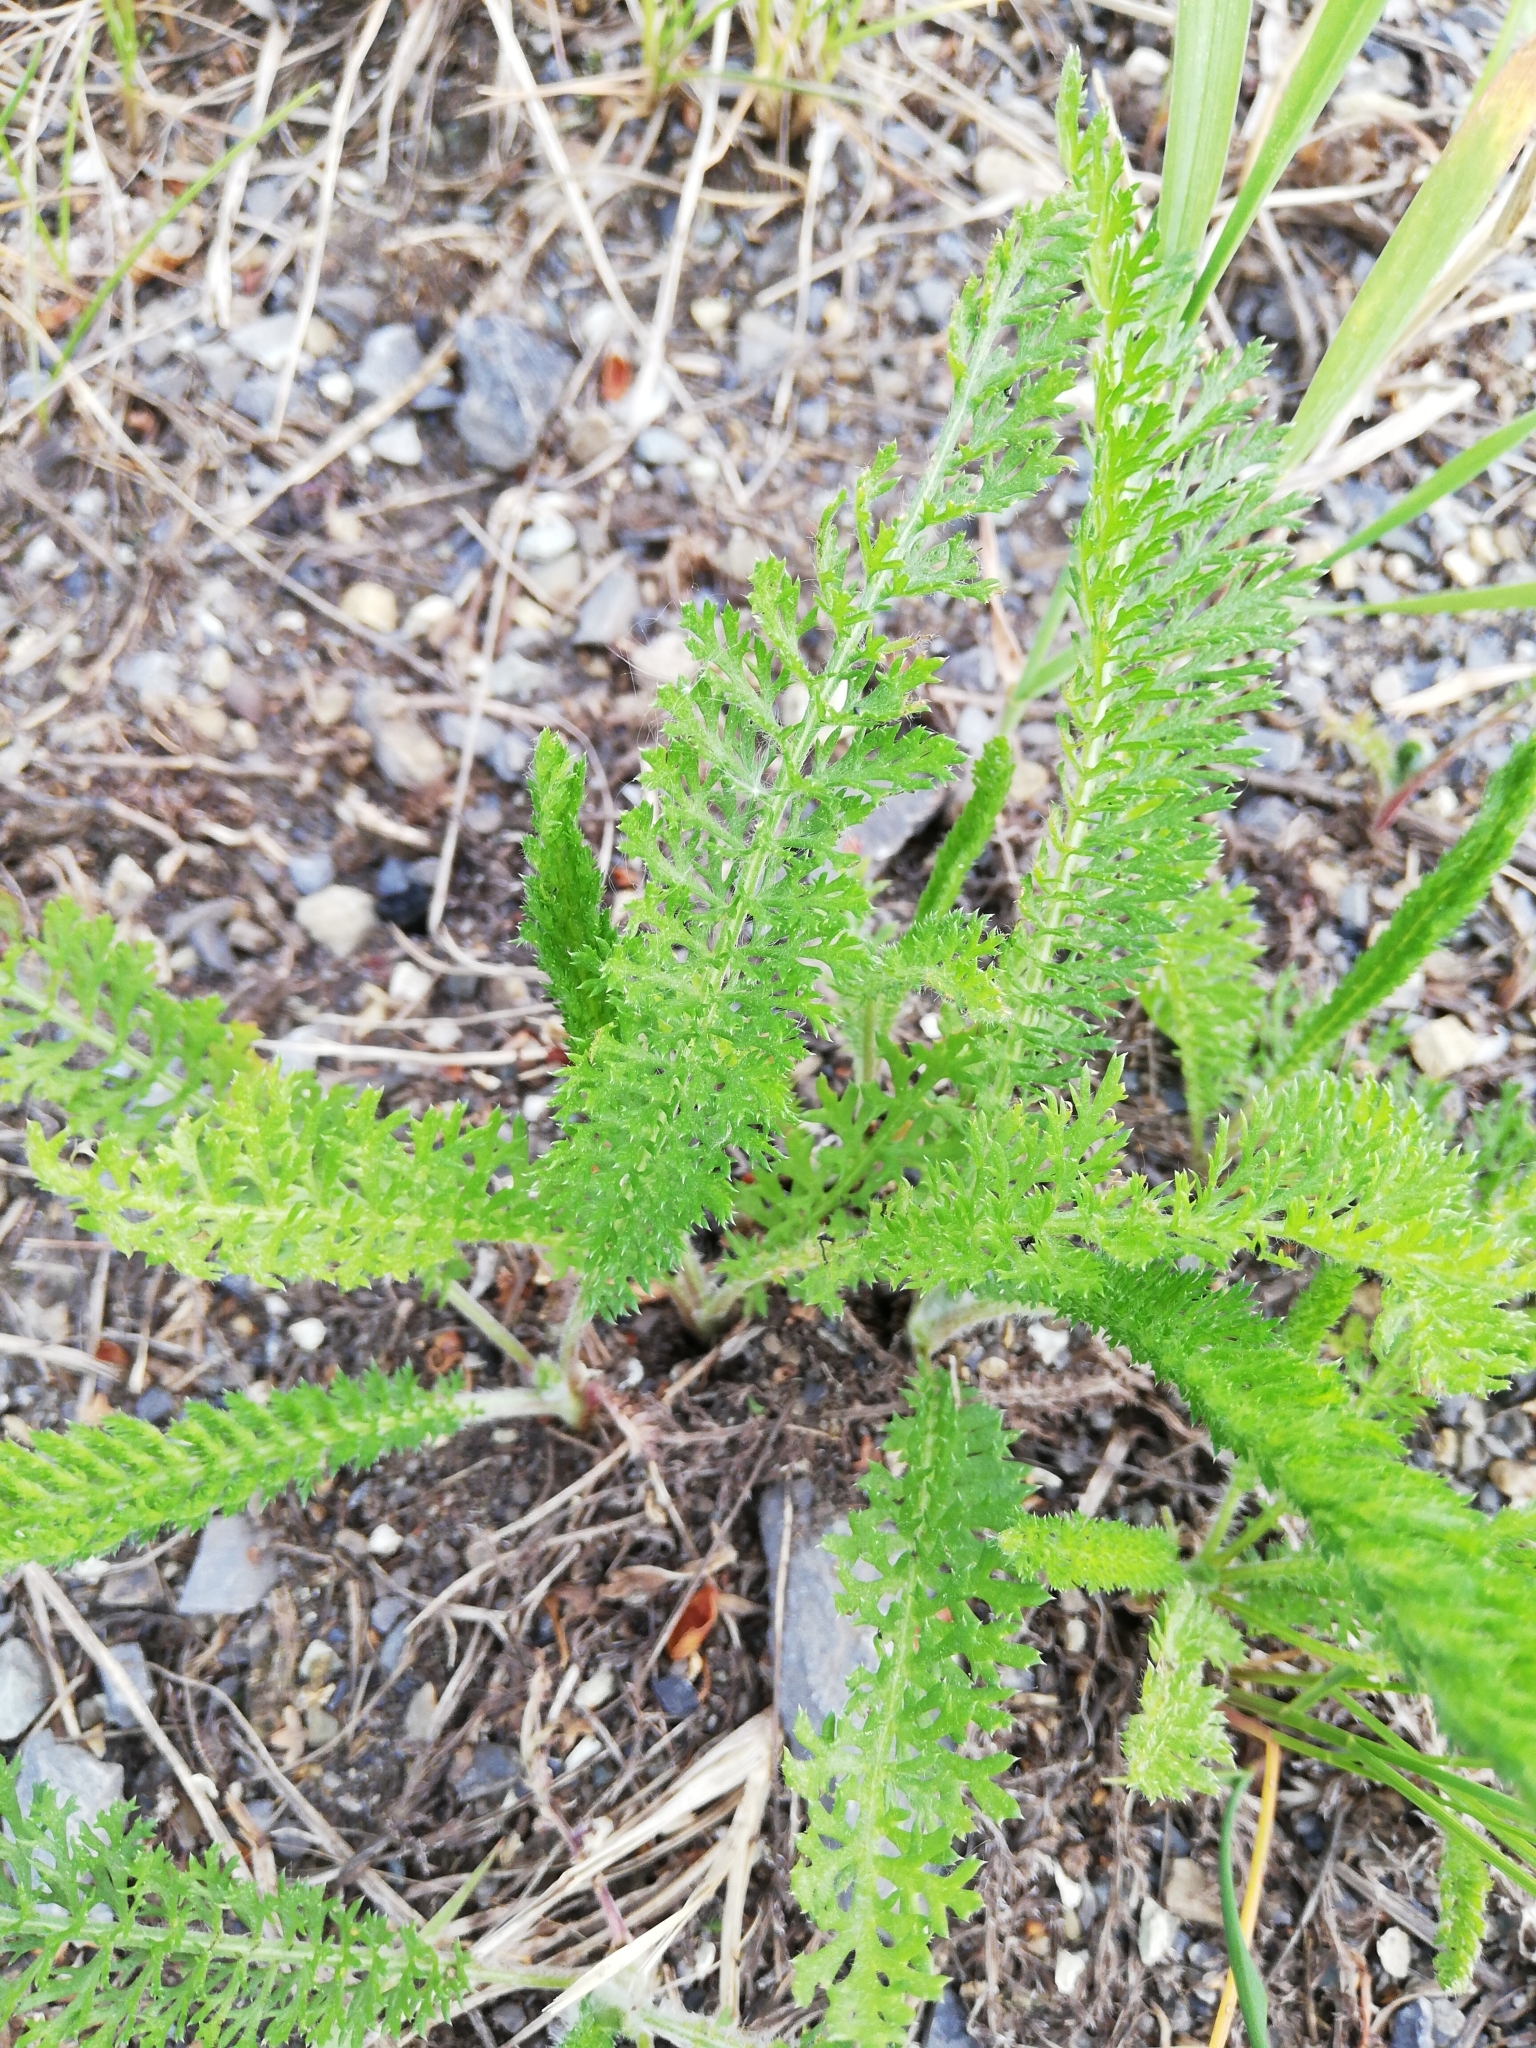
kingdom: Plantae
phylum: Tracheophyta
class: Magnoliopsida
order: Asterales
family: Asteraceae
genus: Achillea
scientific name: Achillea millefolium
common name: Yarrow
